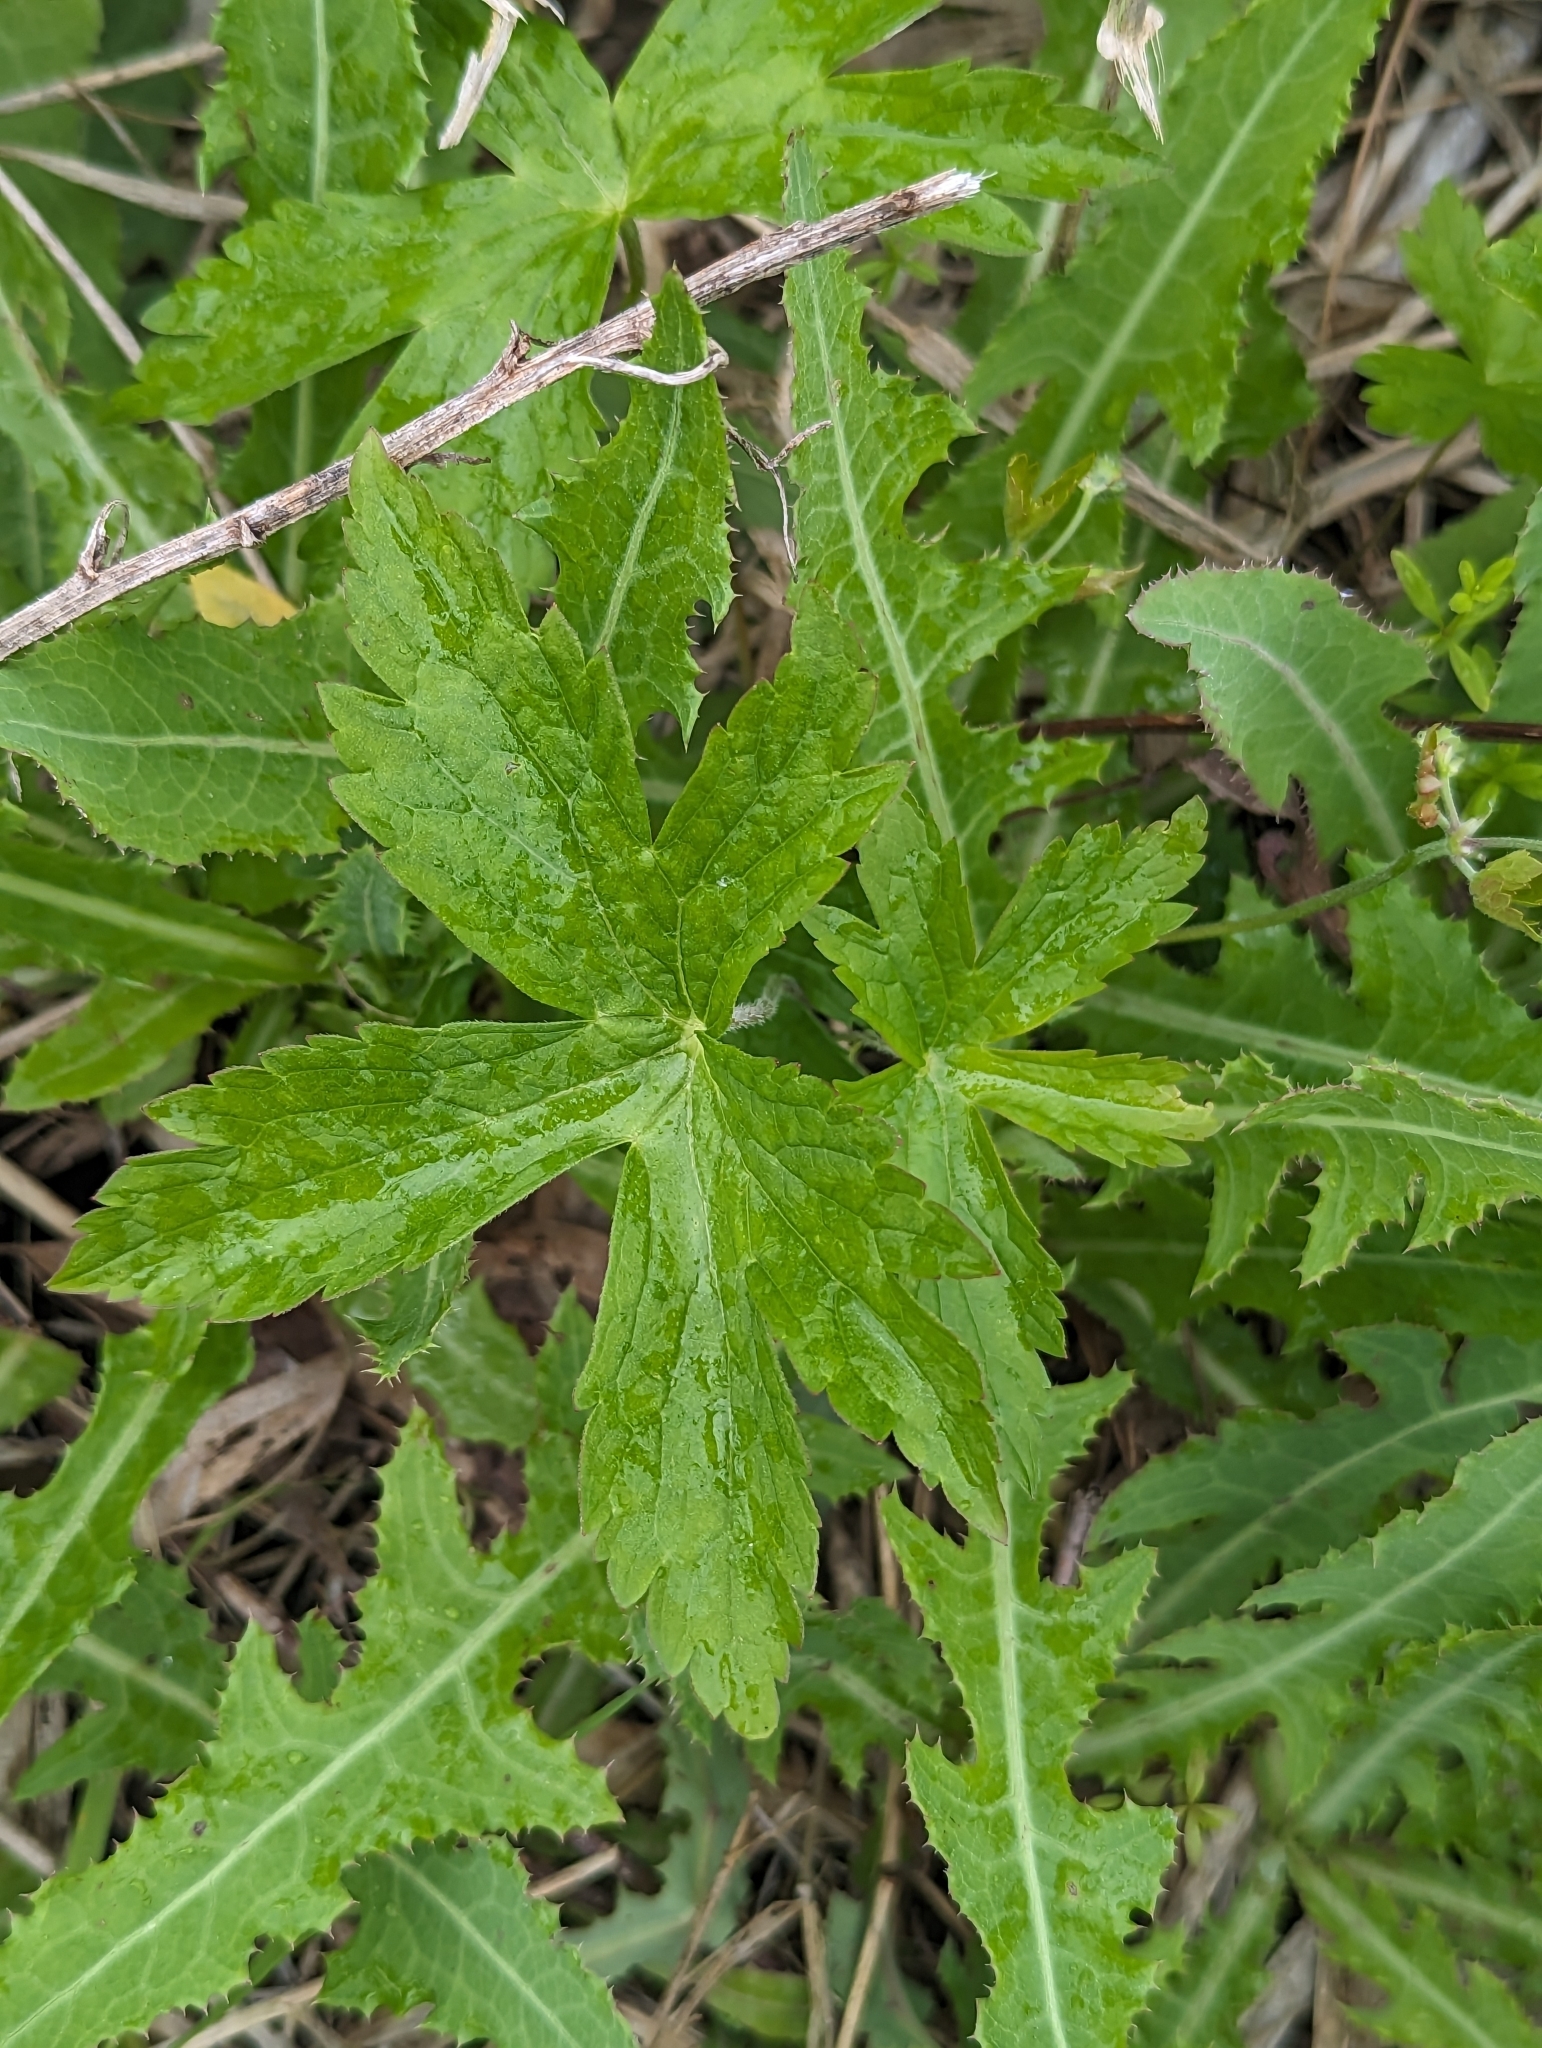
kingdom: Plantae
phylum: Tracheophyta
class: Magnoliopsida
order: Geraniales
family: Geraniaceae
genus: Geranium
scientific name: Geranium maculatum
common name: Spotted geranium
